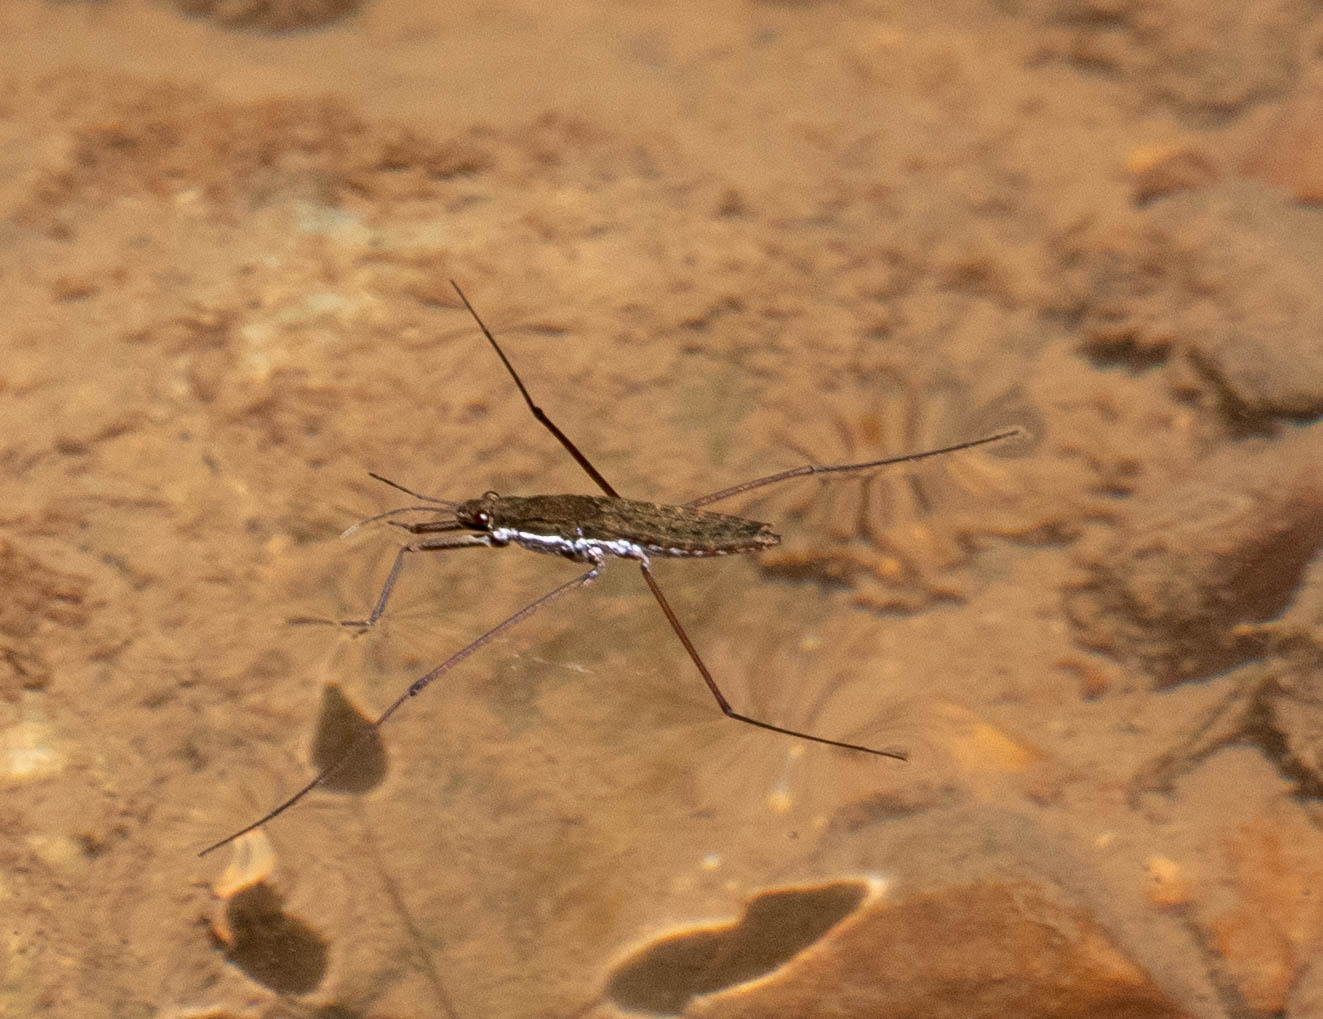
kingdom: Animalia
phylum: Arthropoda
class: Insecta
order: Hemiptera
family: Gerridae
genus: Aquarius
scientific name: Aquarius remigis
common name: Common water strider
